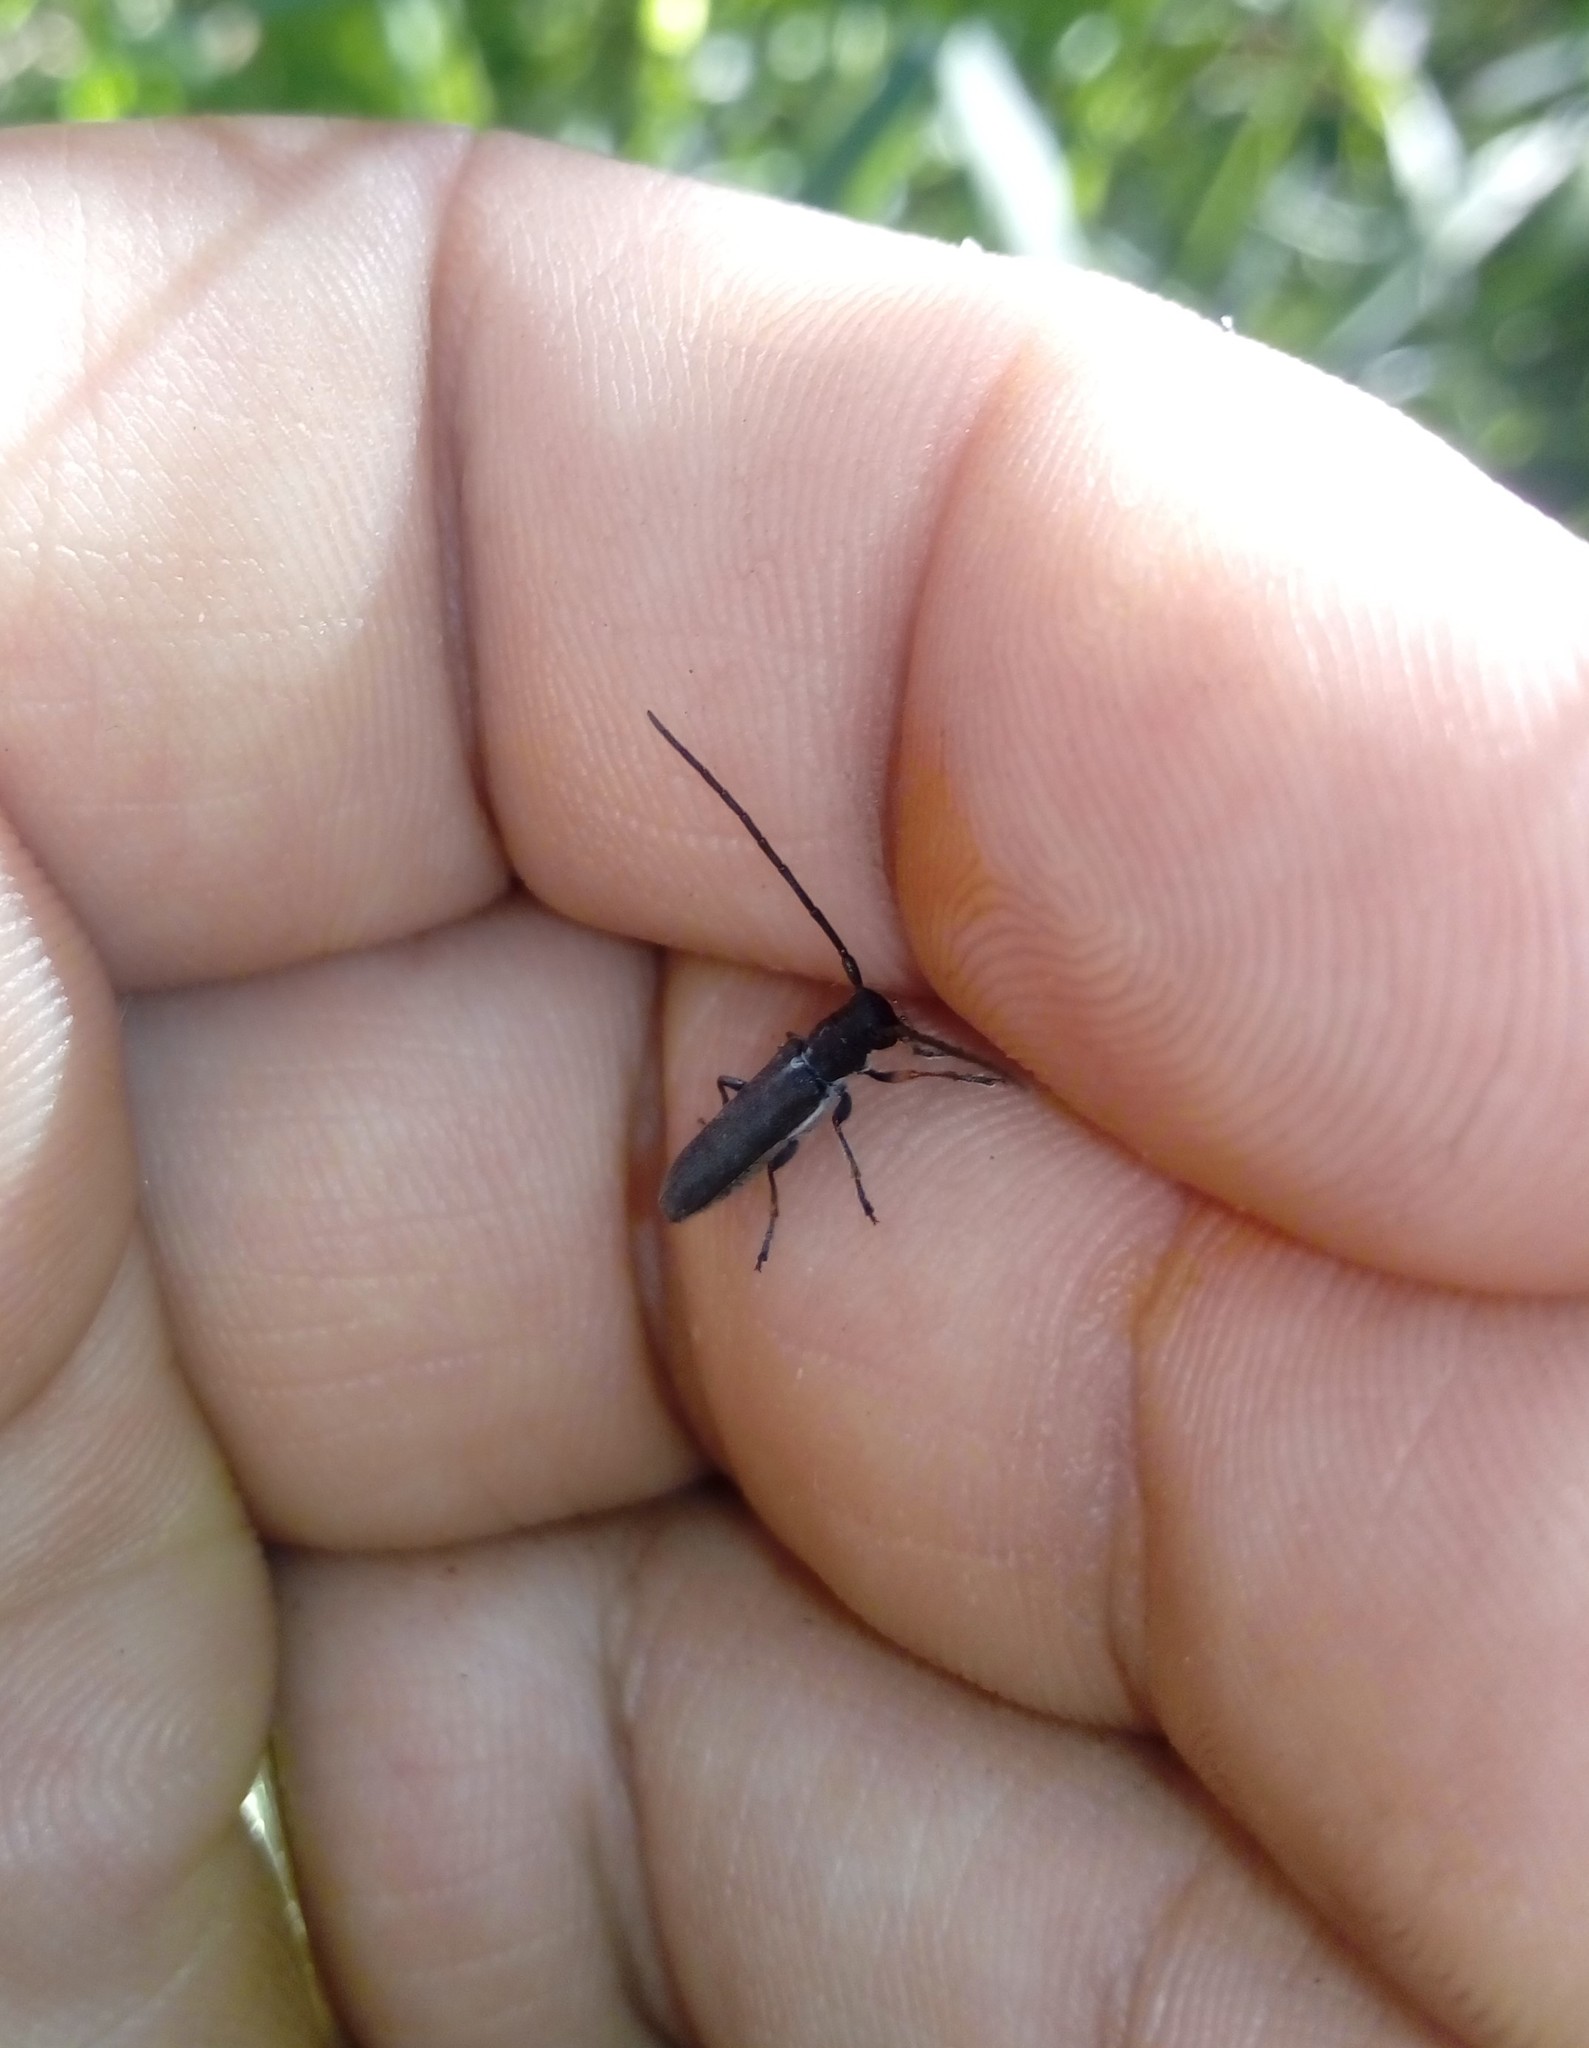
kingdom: Animalia
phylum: Arthropoda
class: Insecta
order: Coleoptera
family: Cerambycidae
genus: Phytoecia
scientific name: Phytoecia cylindrica
